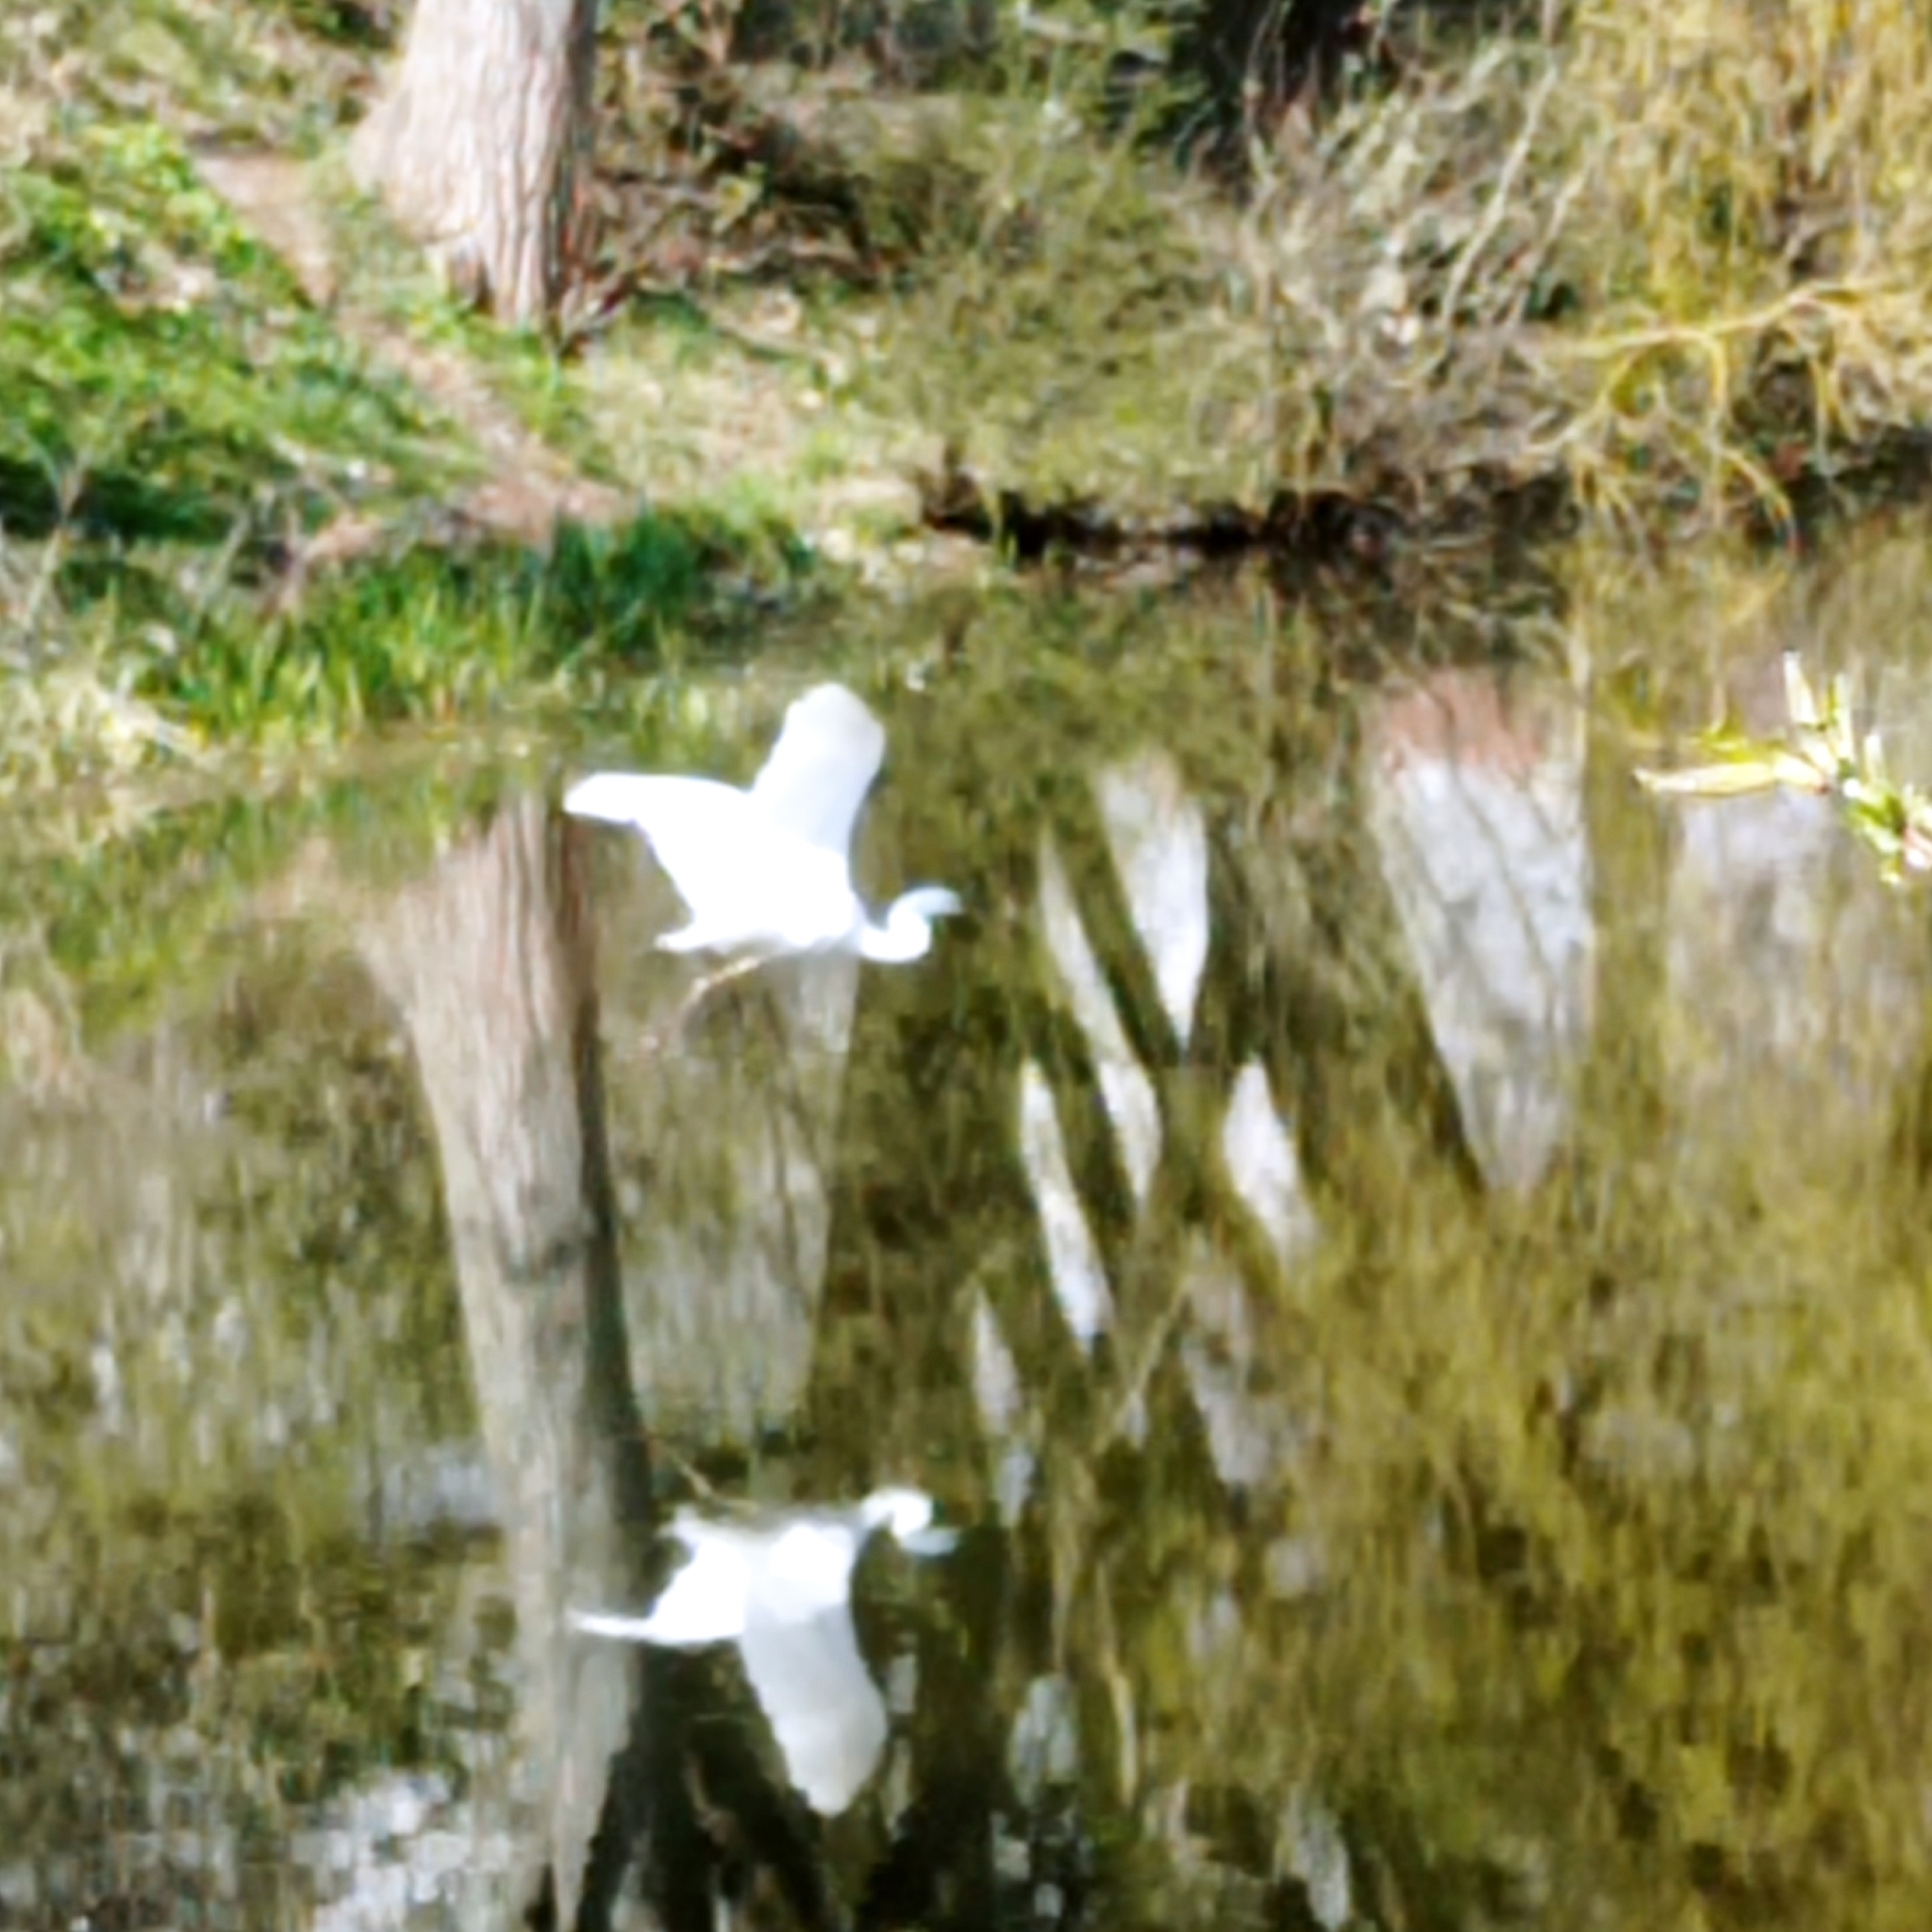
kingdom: Animalia
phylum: Chordata
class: Aves
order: Pelecaniformes
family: Ardeidae
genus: Ardea
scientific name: Ardea alba
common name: Great egret
